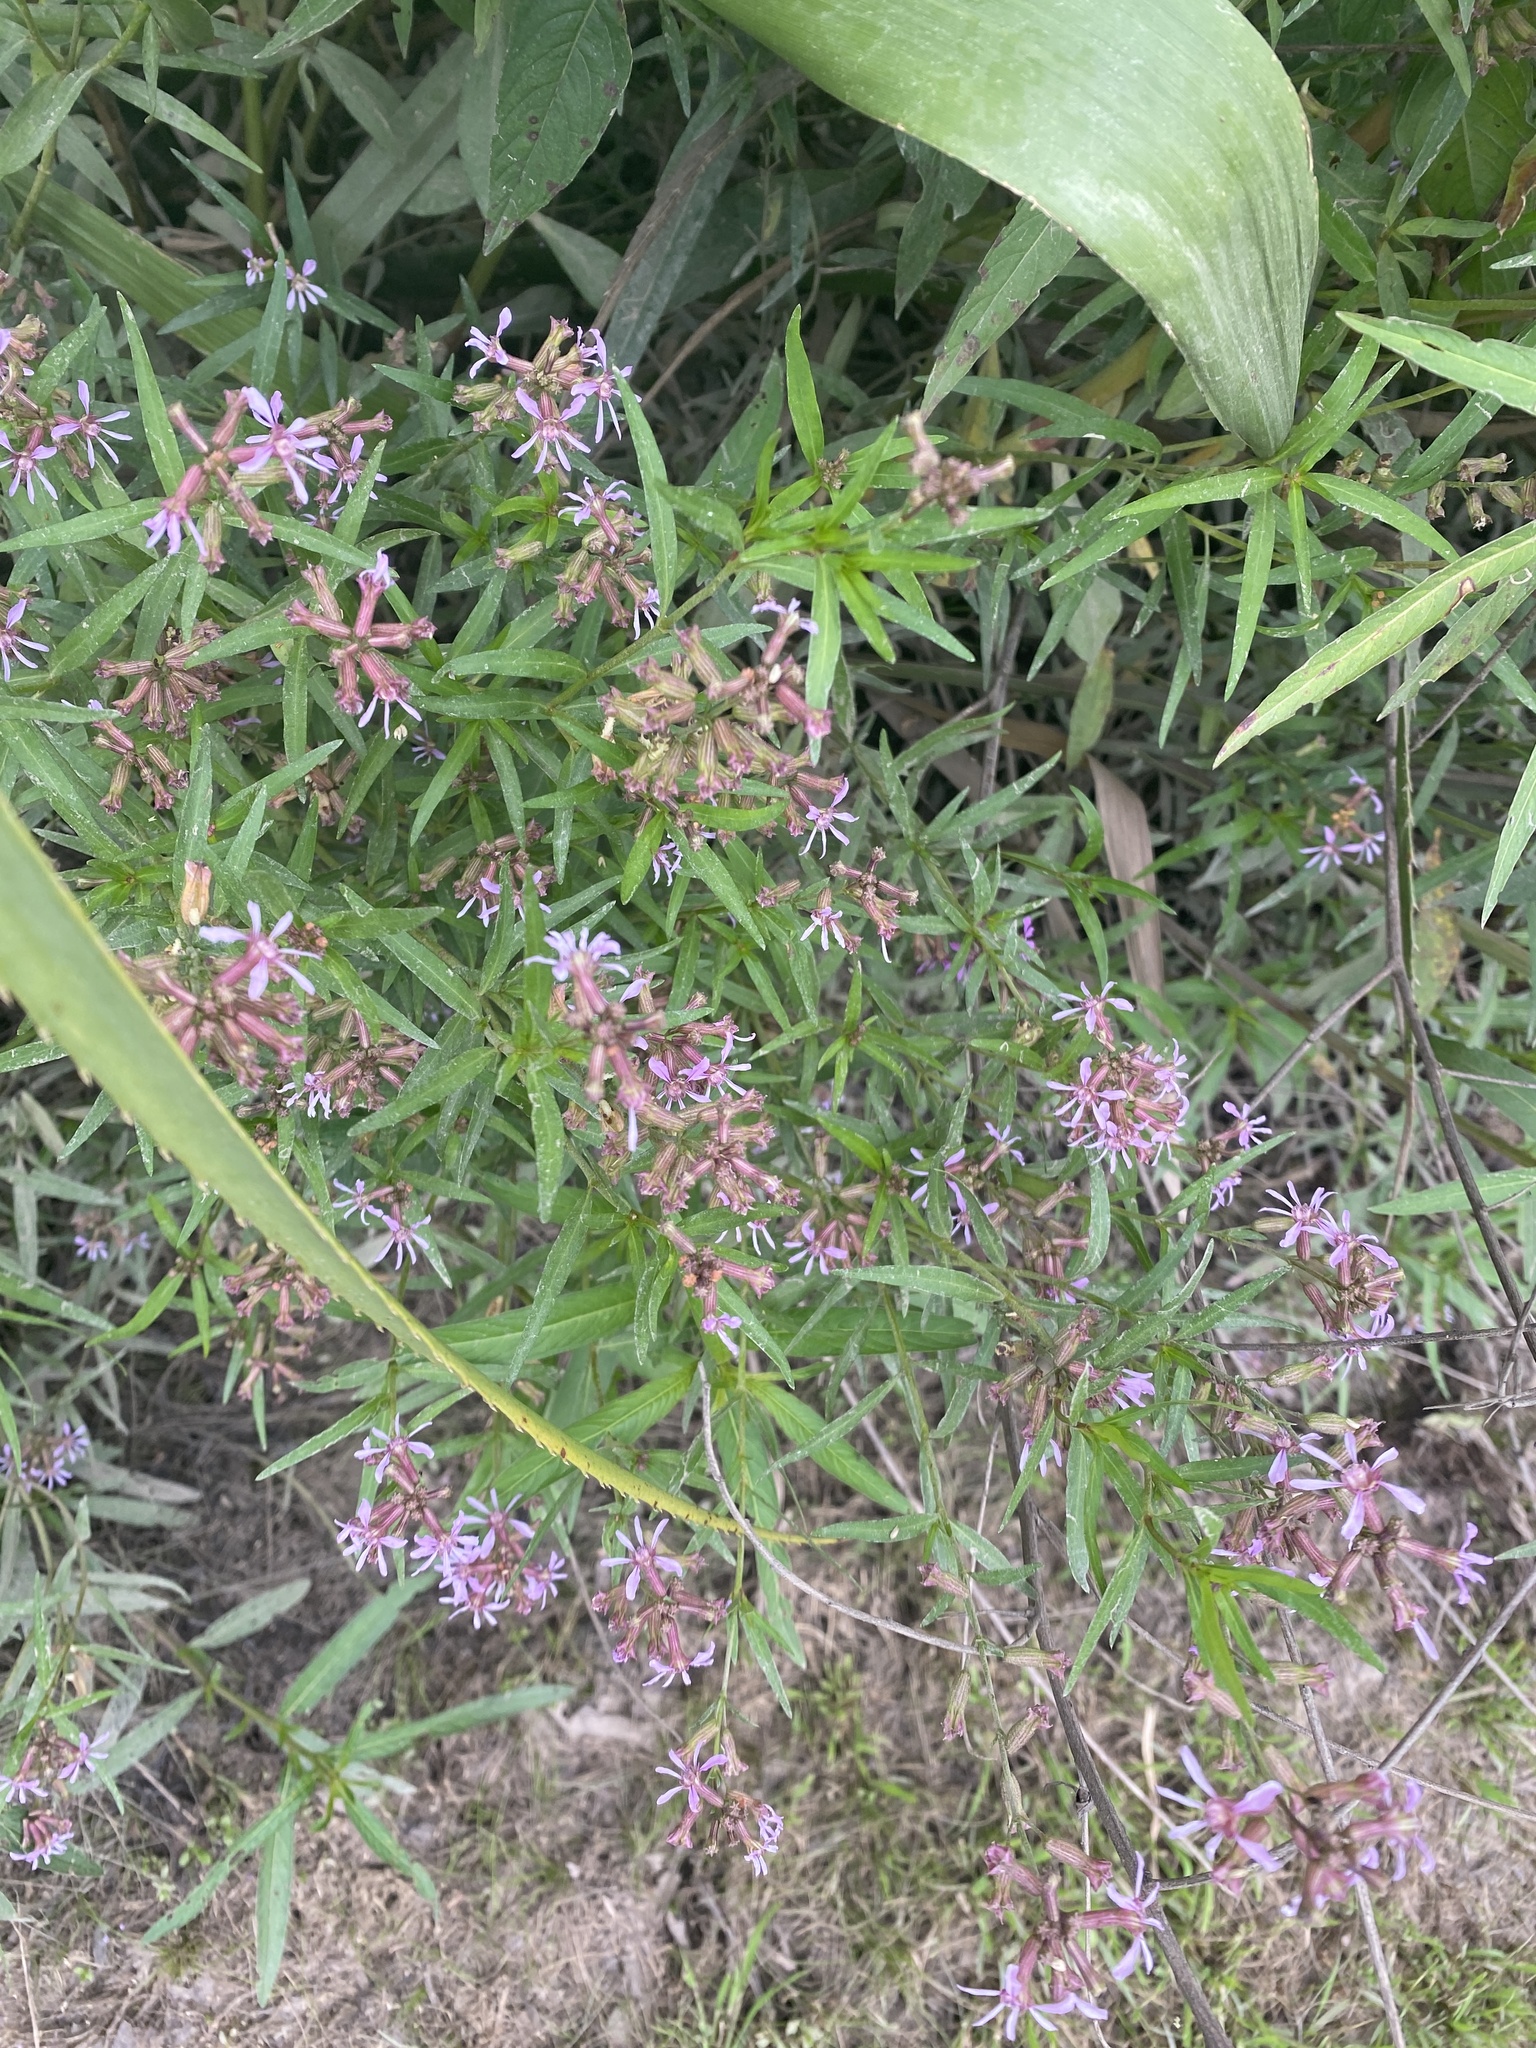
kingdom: Plantae
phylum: Tracheophyta
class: Magnoliopsida
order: Myrtales
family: Lythraceae
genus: Cuphea
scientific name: Cuphea fruticosa
